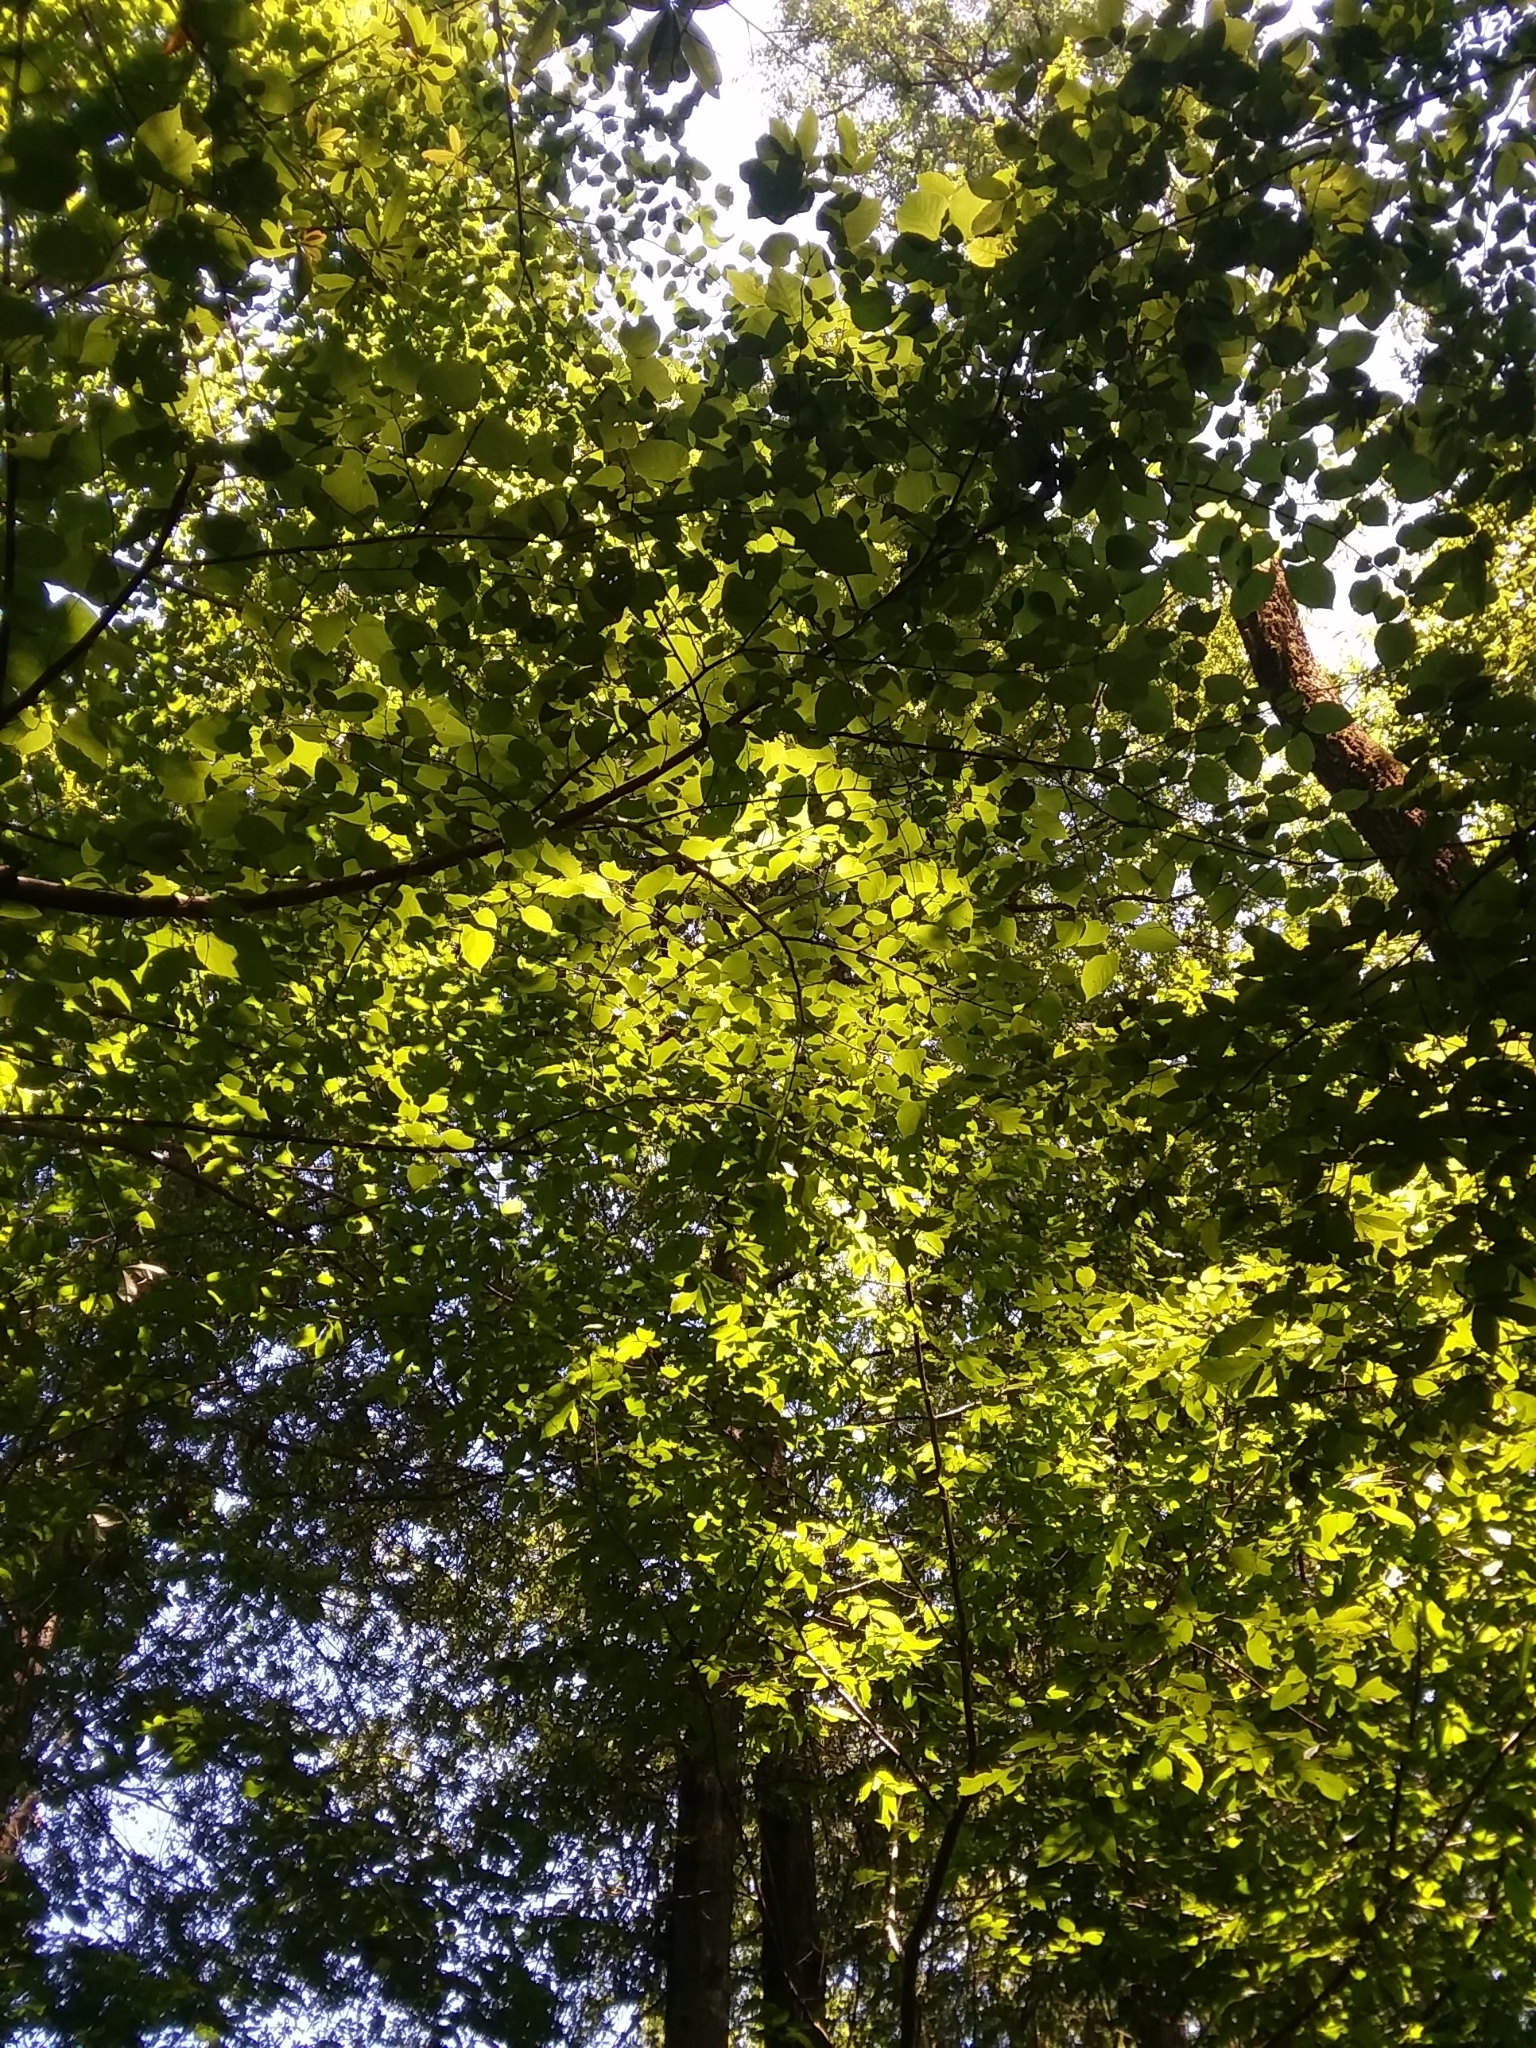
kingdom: Plantae
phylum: Tracheophyta
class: Magnoliopsida
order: Malvales
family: Malvaceae
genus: Tilia
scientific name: Tilia americana
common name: Basswood
